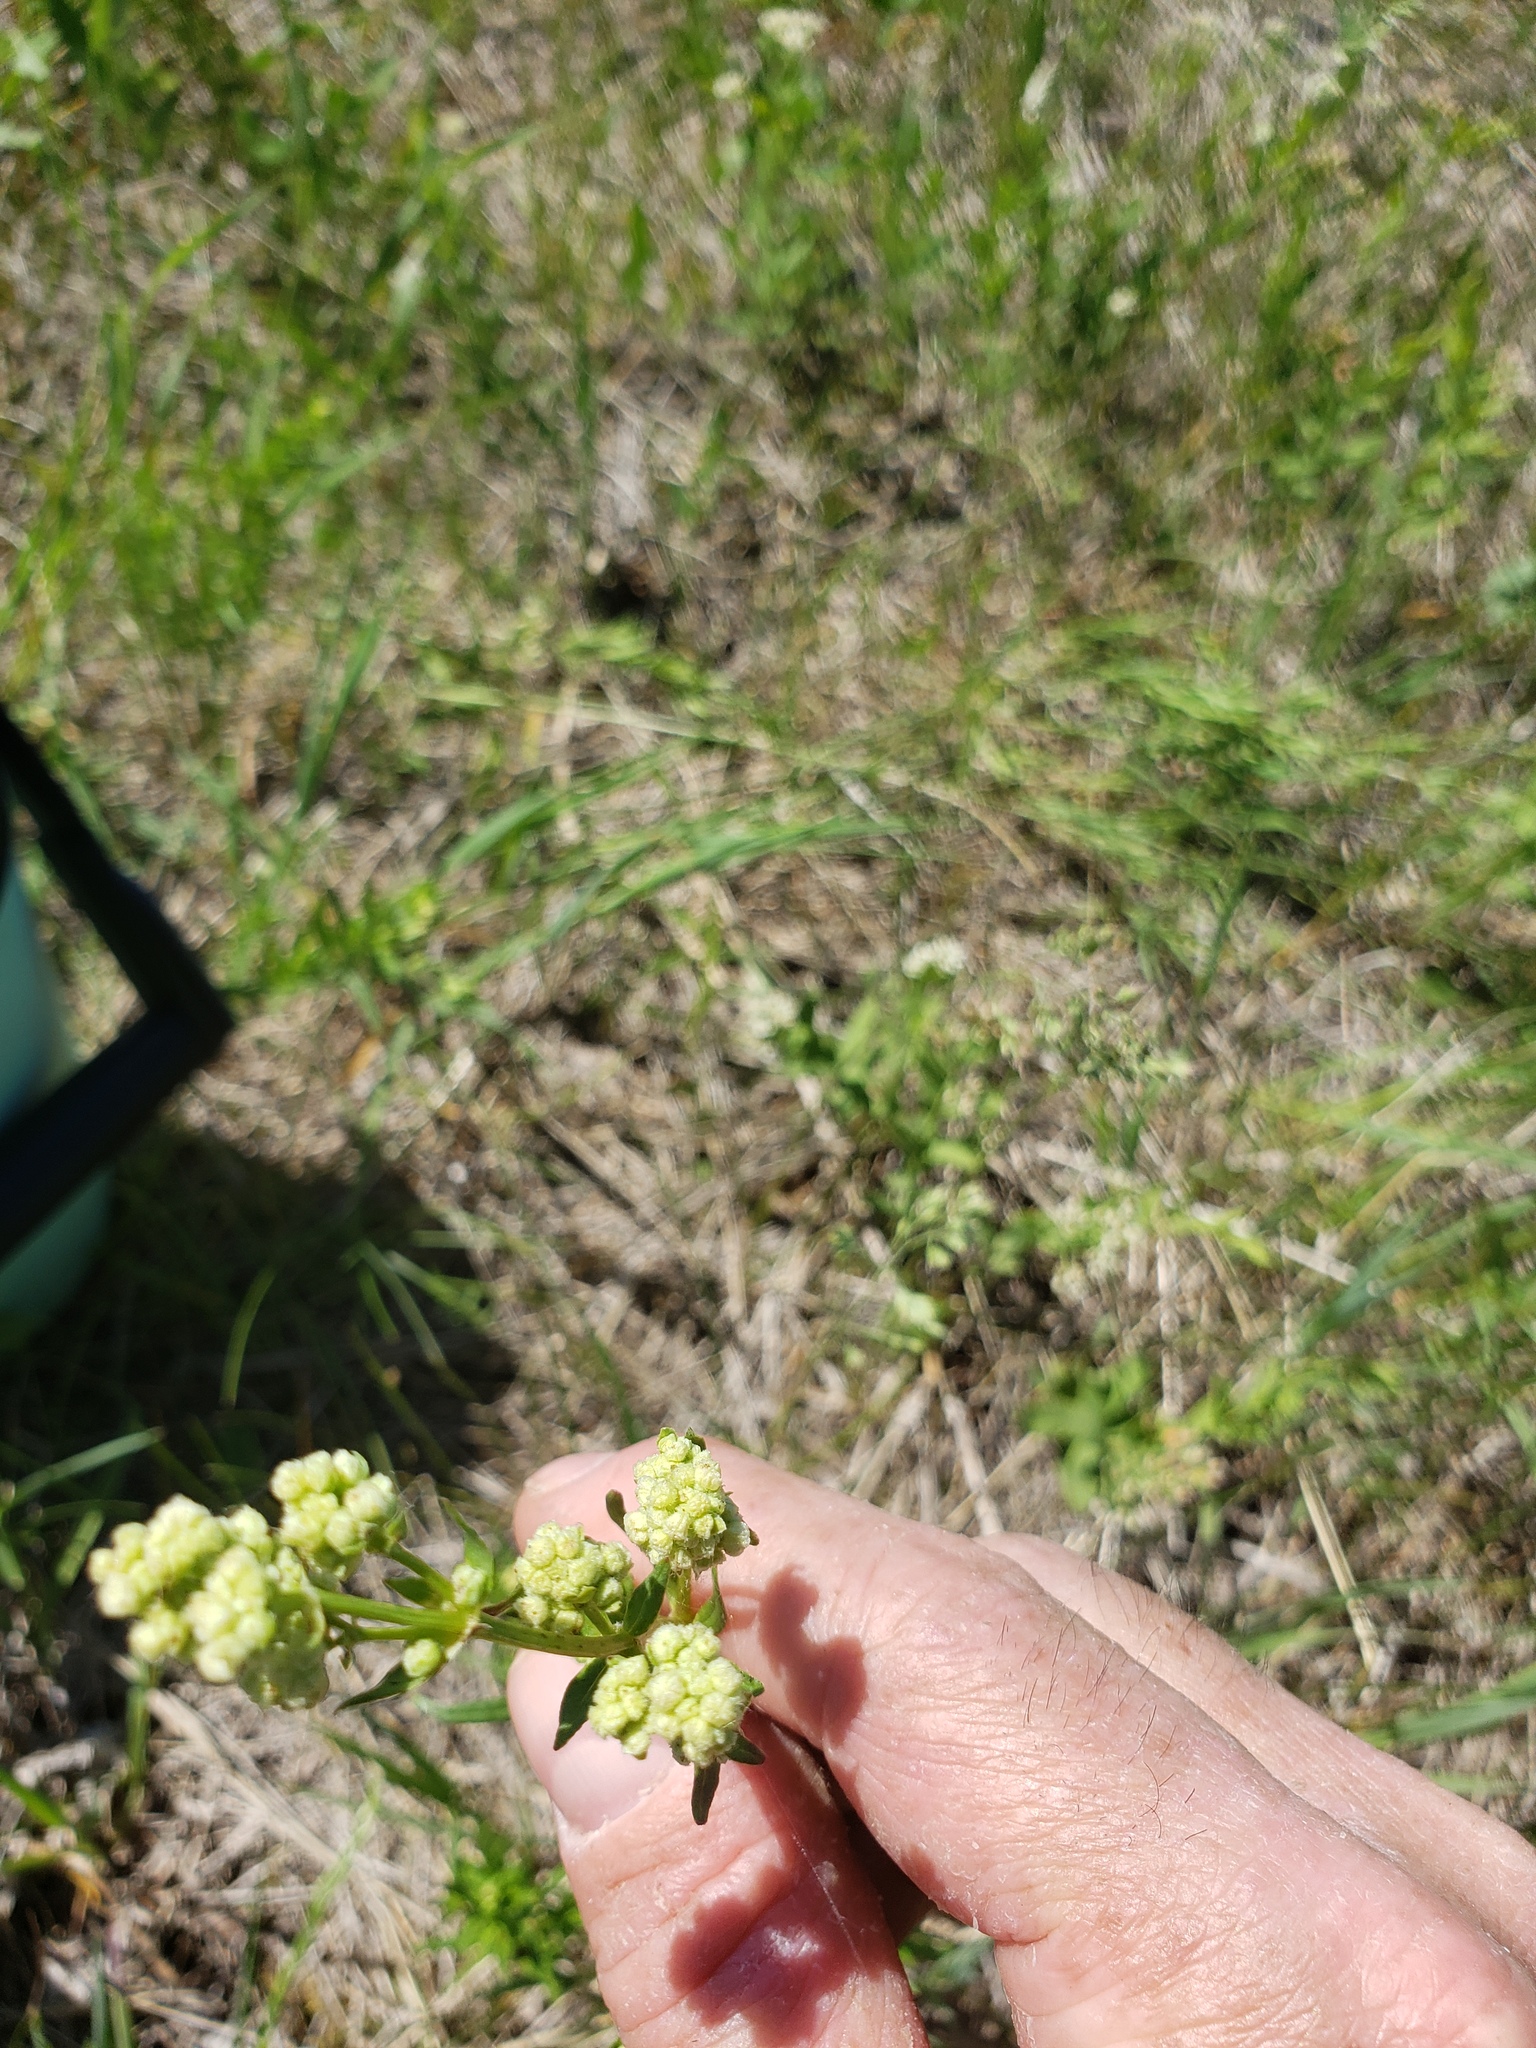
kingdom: Plantae
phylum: Tracheophyta
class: Magnoliopsida
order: Gentianales
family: Rubiaceae
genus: Galium
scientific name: Galium boreale
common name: Northern bedstraw
